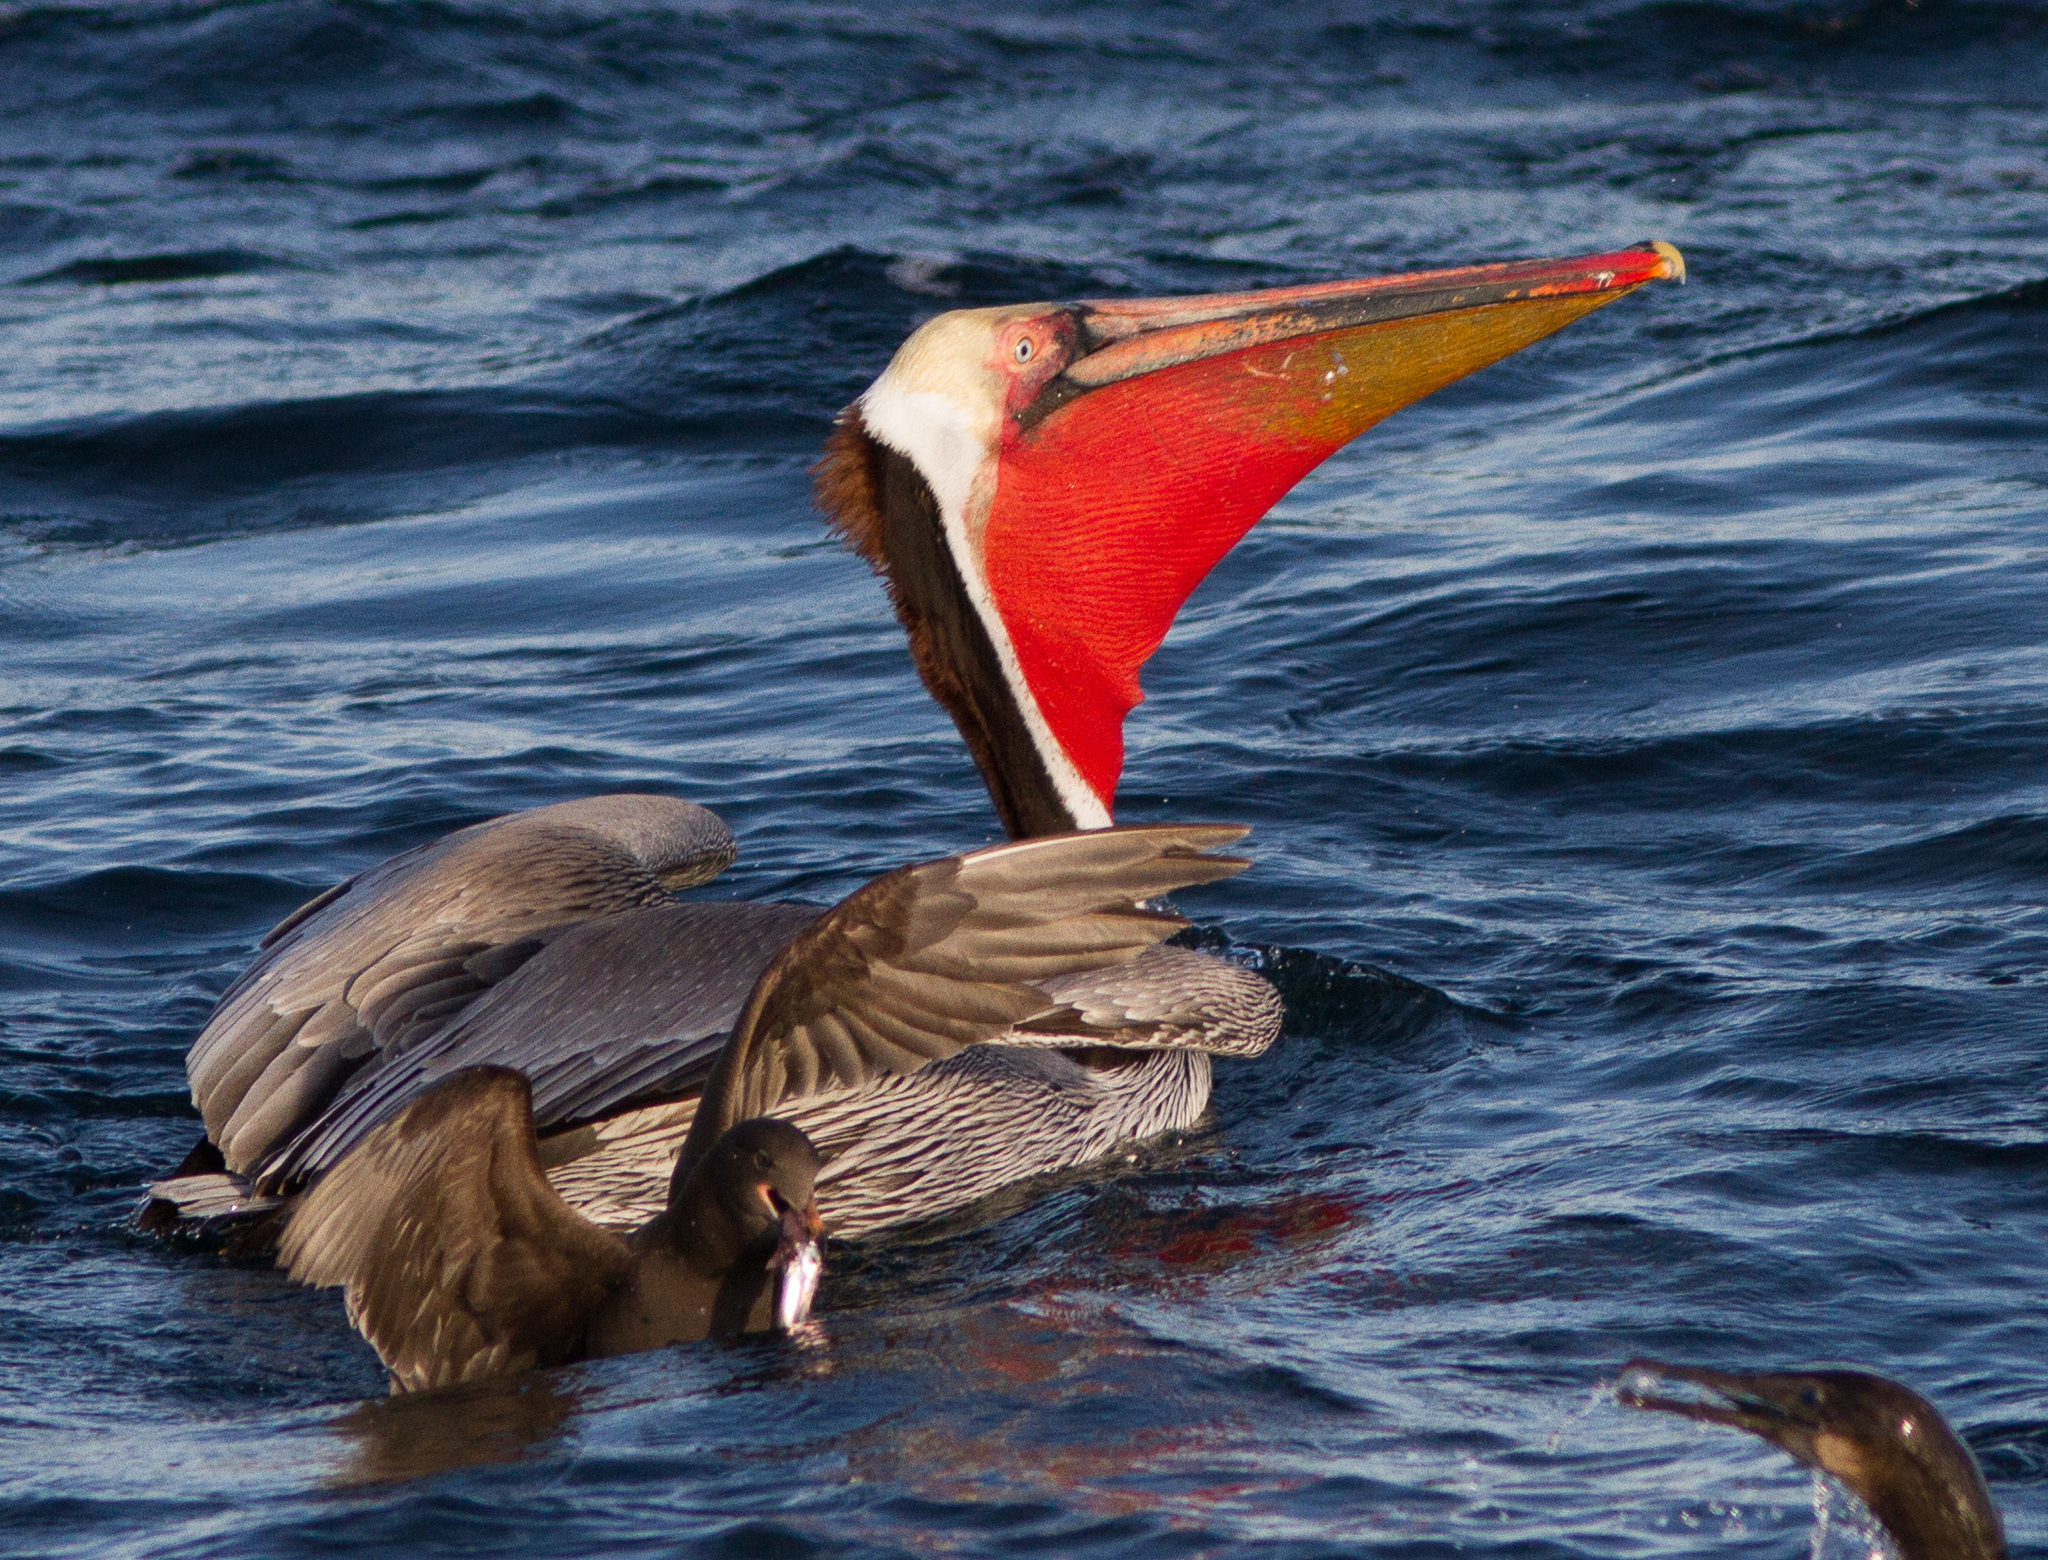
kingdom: Animalia
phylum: Chordata
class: Aves
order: Pelecaniformes
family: Pelecanidae
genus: Pelecanus
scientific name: Pelecanus occidentalis
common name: Brown pelican
